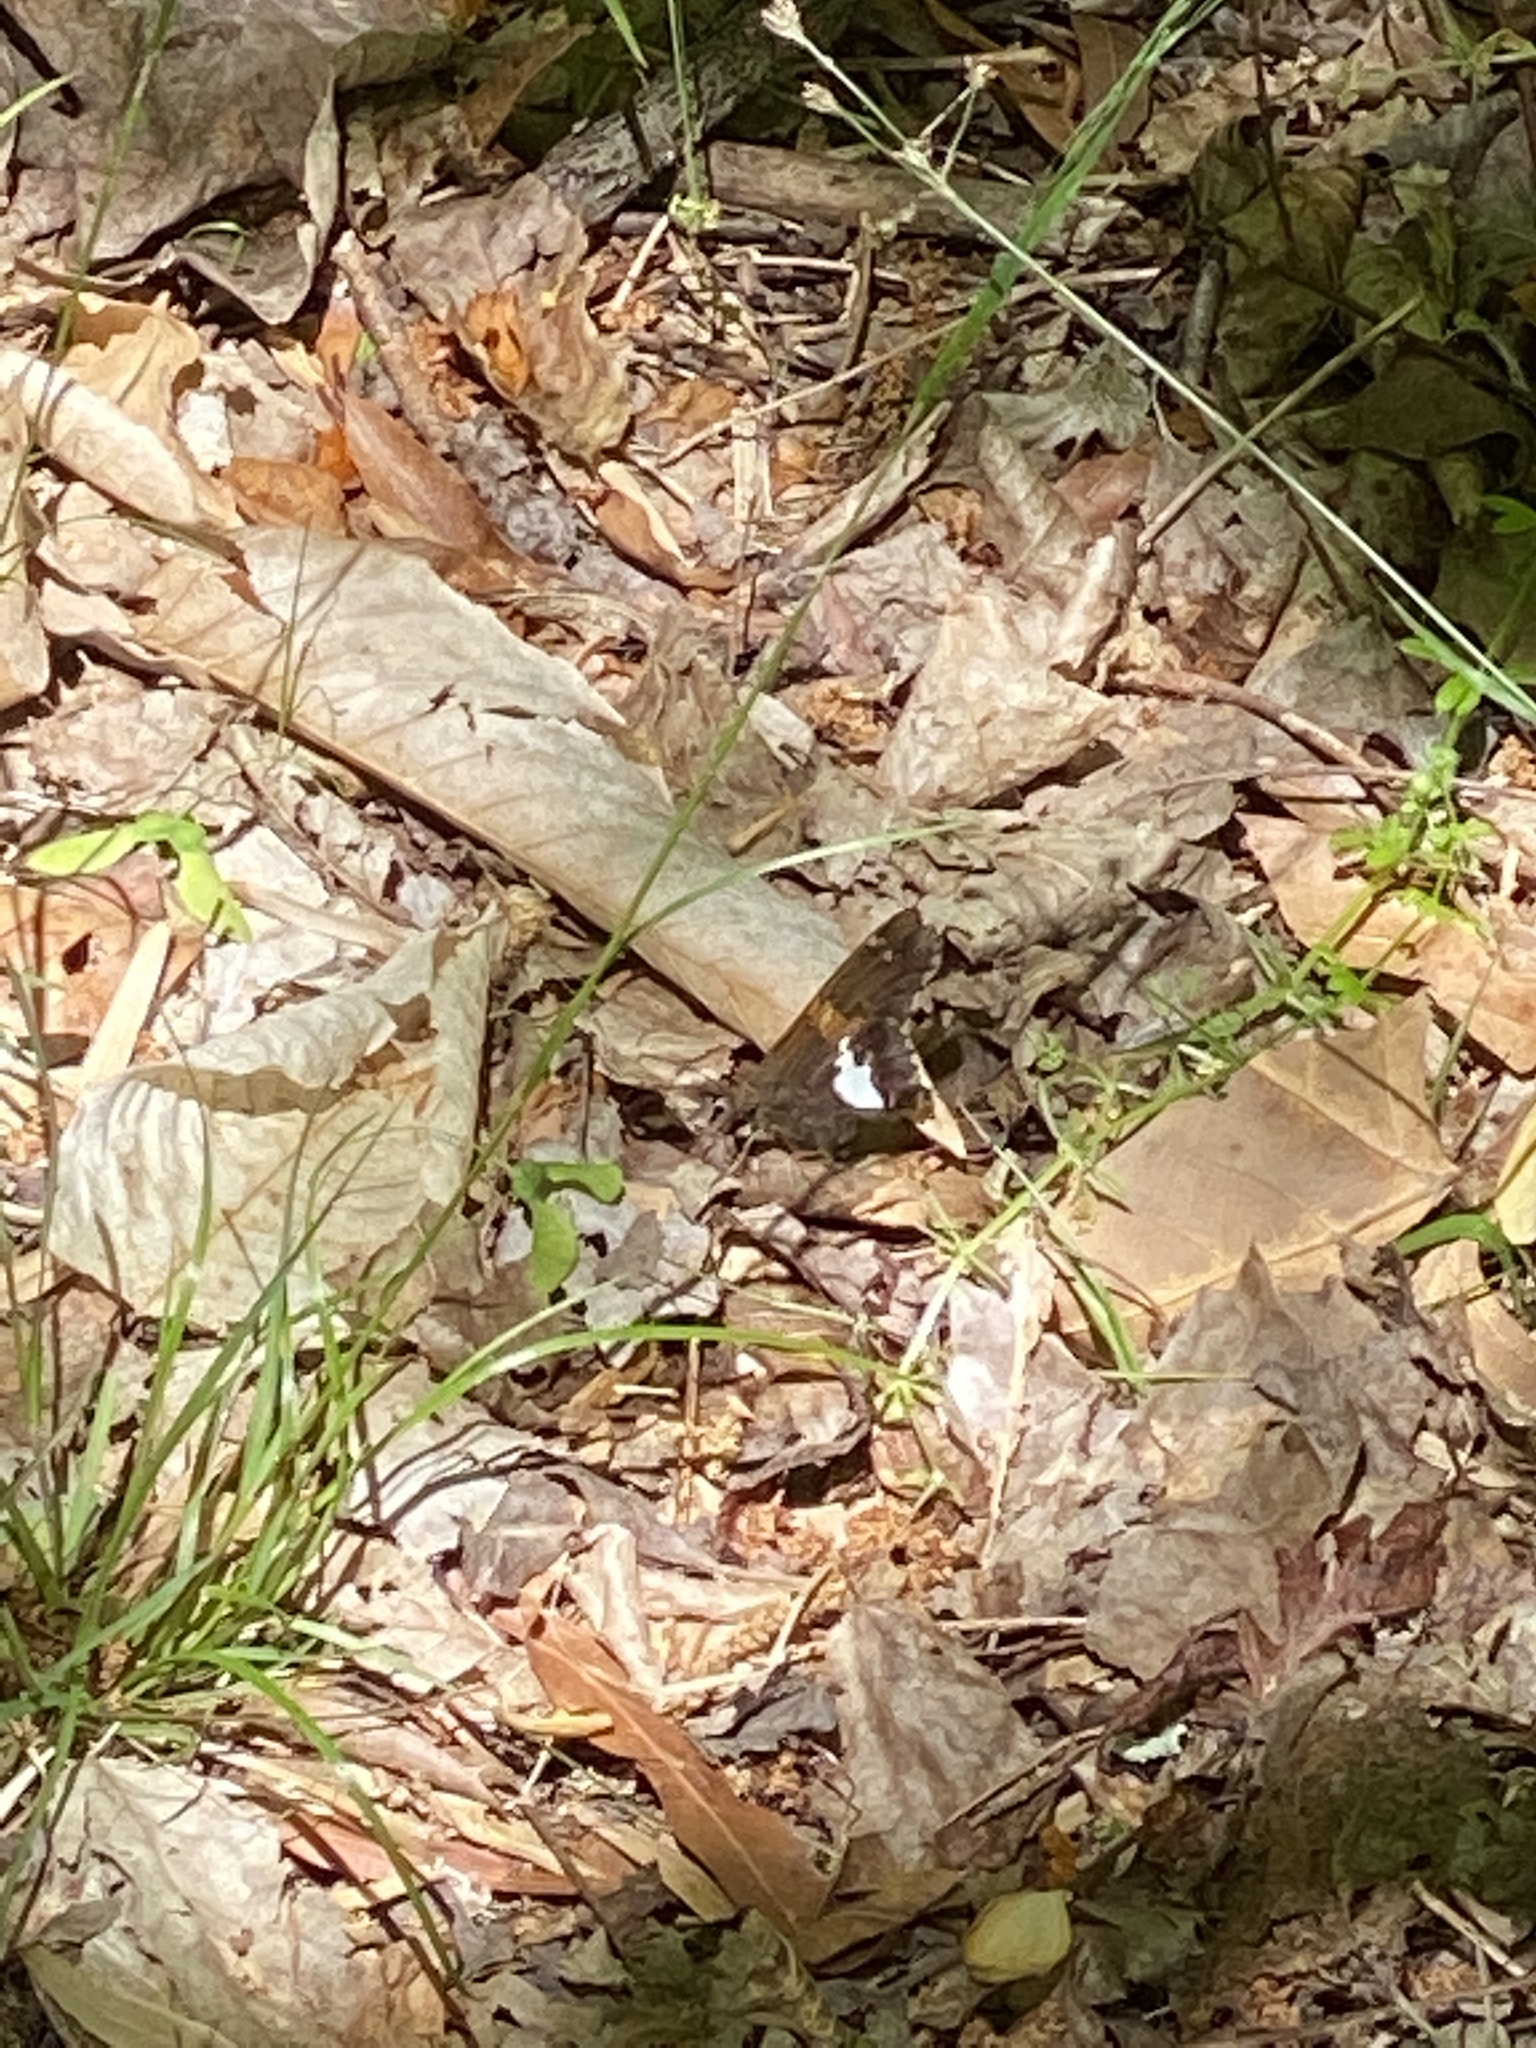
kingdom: Animalia
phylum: Arthropoda
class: Insecta
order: Lepidoptera
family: Hesperiidae
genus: Epargyreus
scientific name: Epargyreus clarus
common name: Silver-spotted skipper
